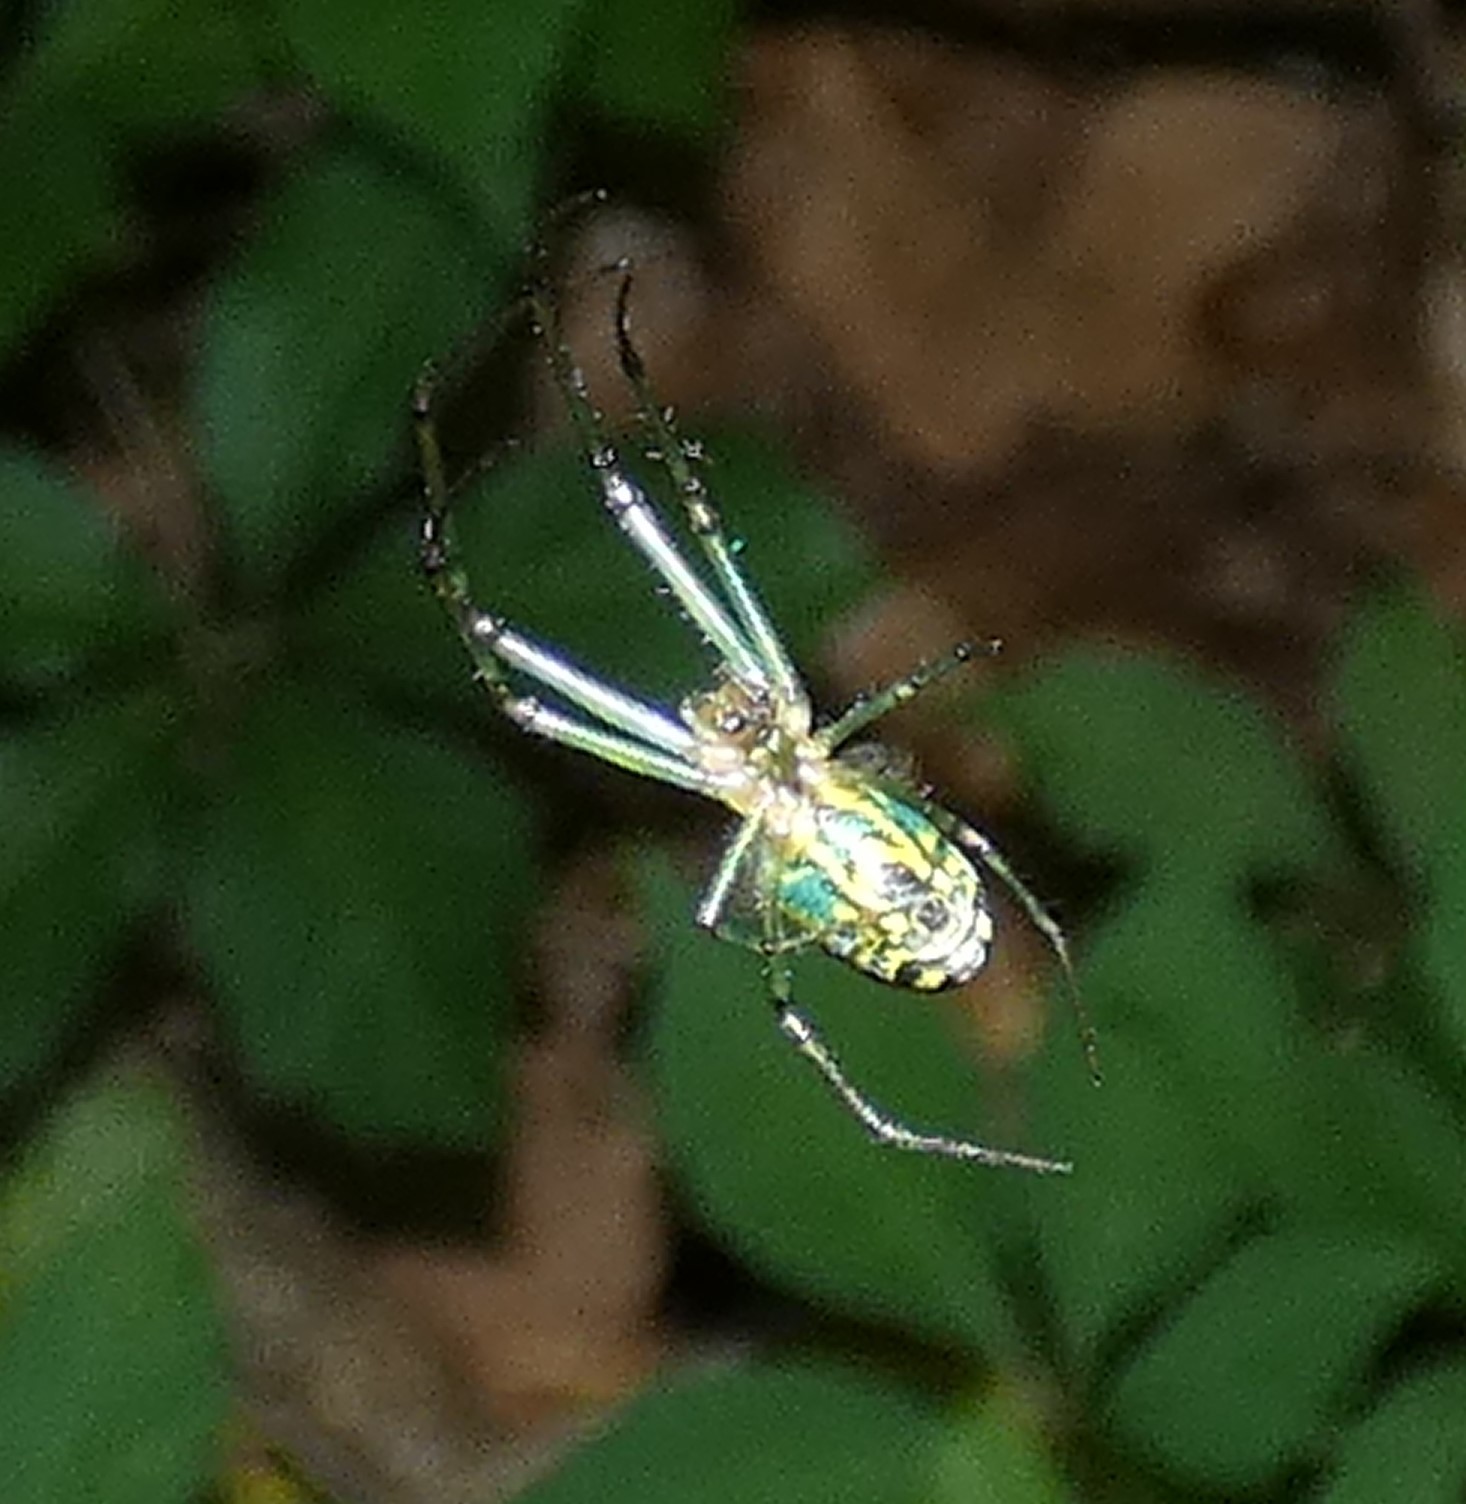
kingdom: Animalia
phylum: Arthropoda
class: Arachnida
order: Araneae
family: Tetragnathidae
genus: Leucauge
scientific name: Leucauge venusta
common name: Longjawed orb weavers
